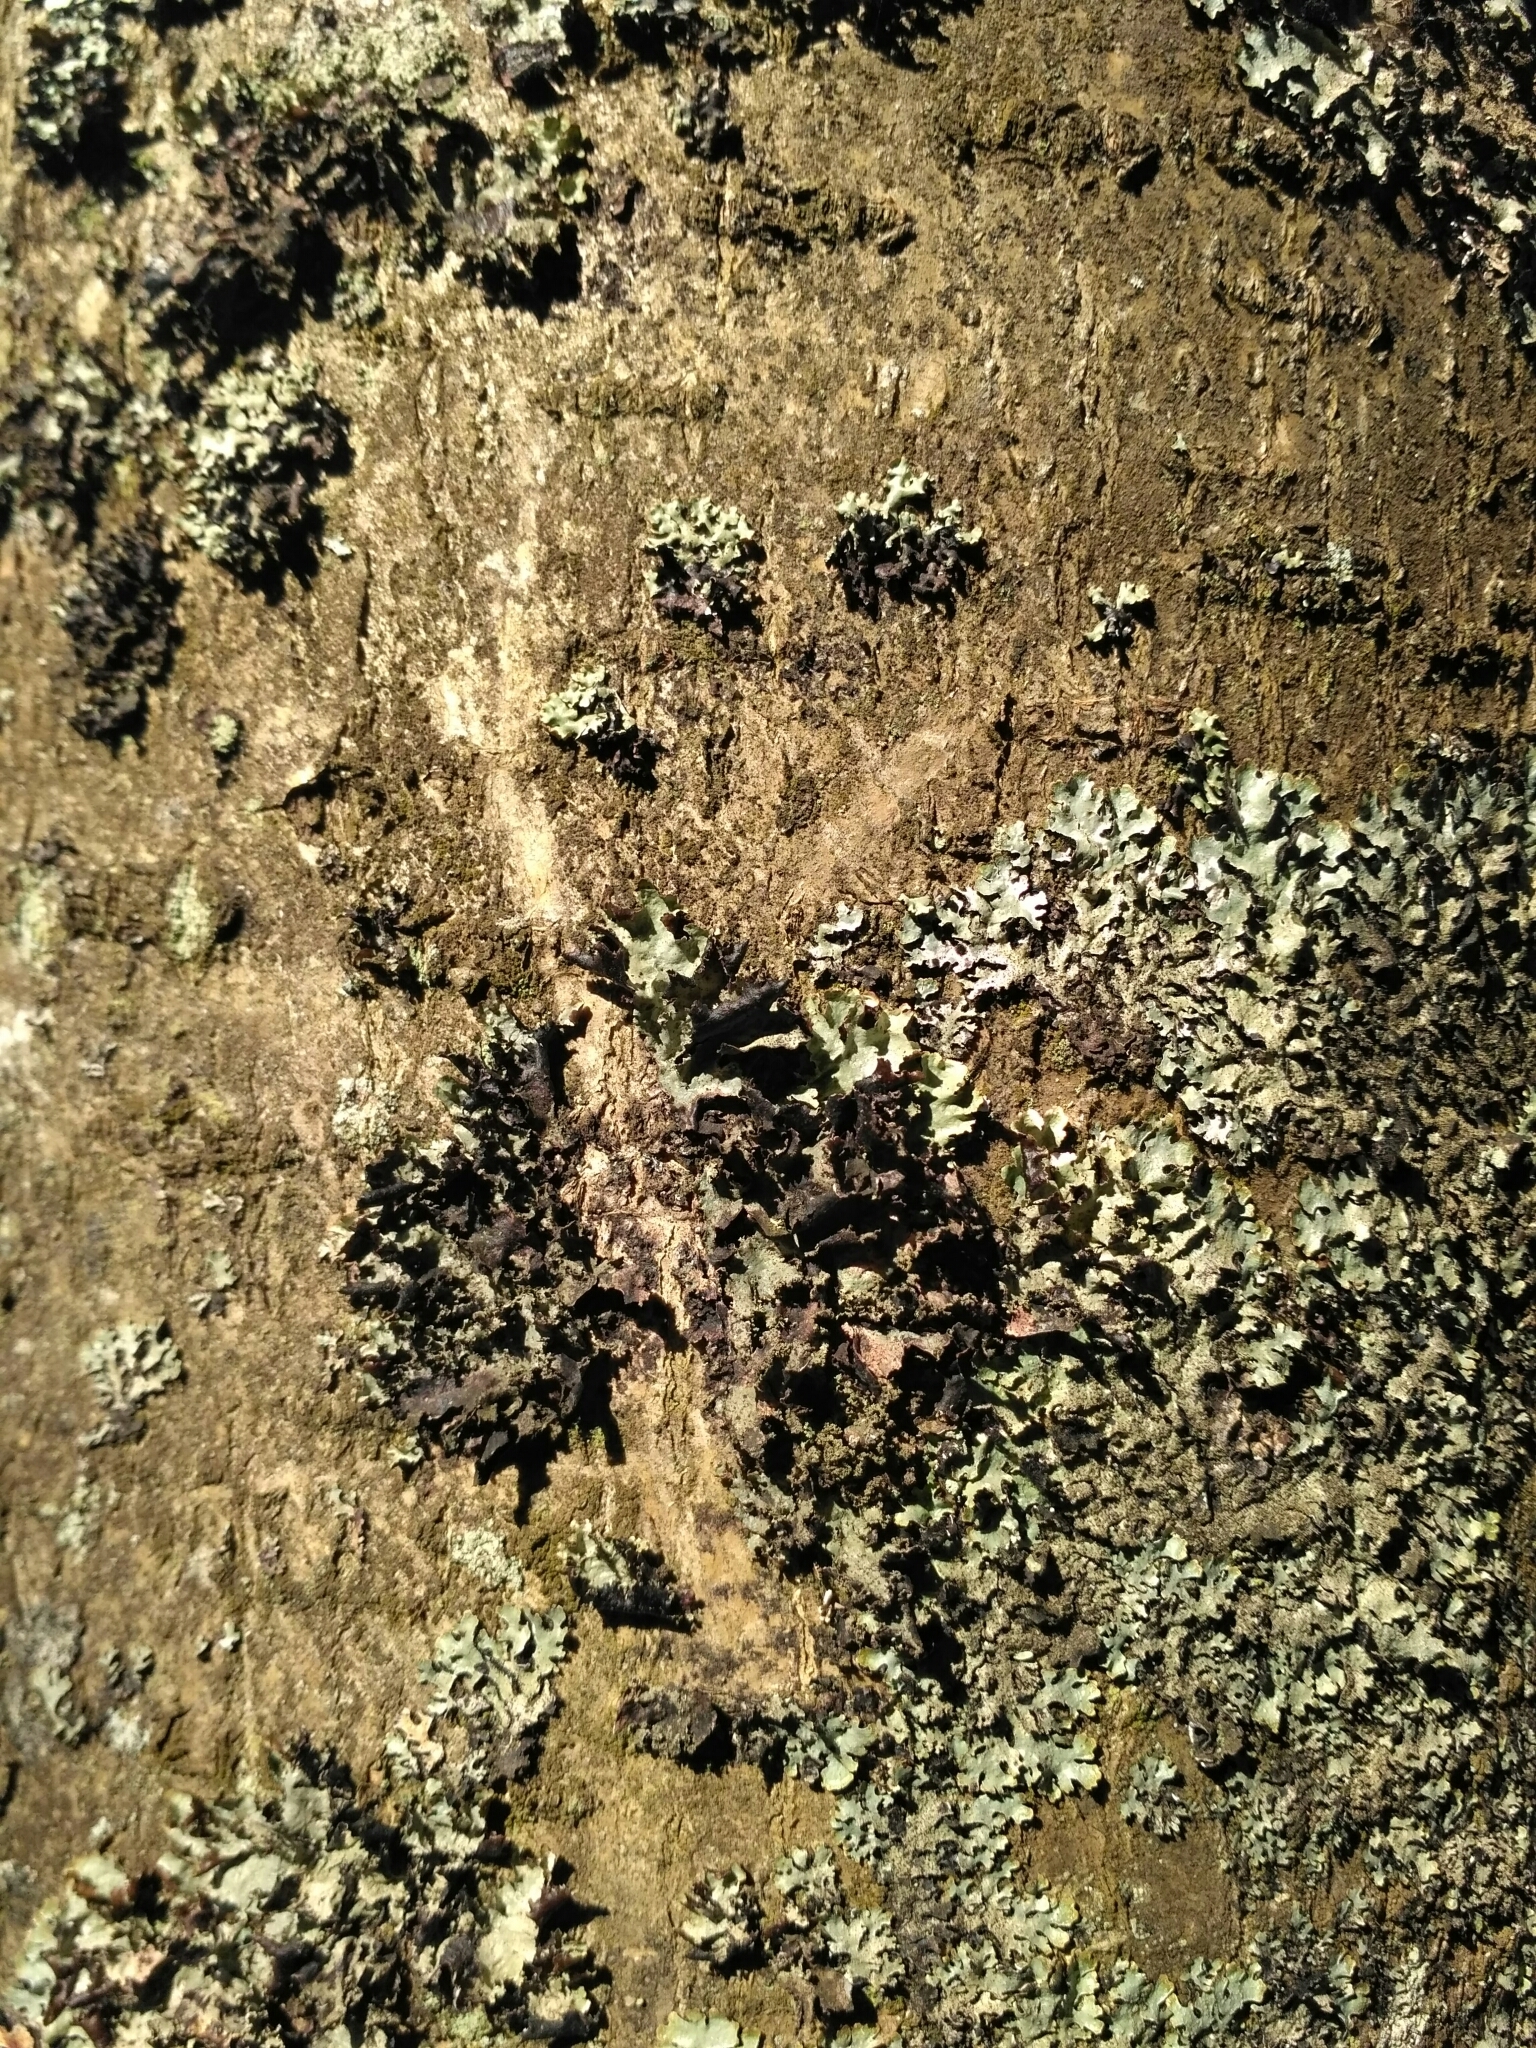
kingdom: Fungi
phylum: Ascomycota
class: Lecanoromycetes
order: Lecanorales
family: Parmeliaceae
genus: Platismatia
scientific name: Platismatia glauca
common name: Varied rag lichen
